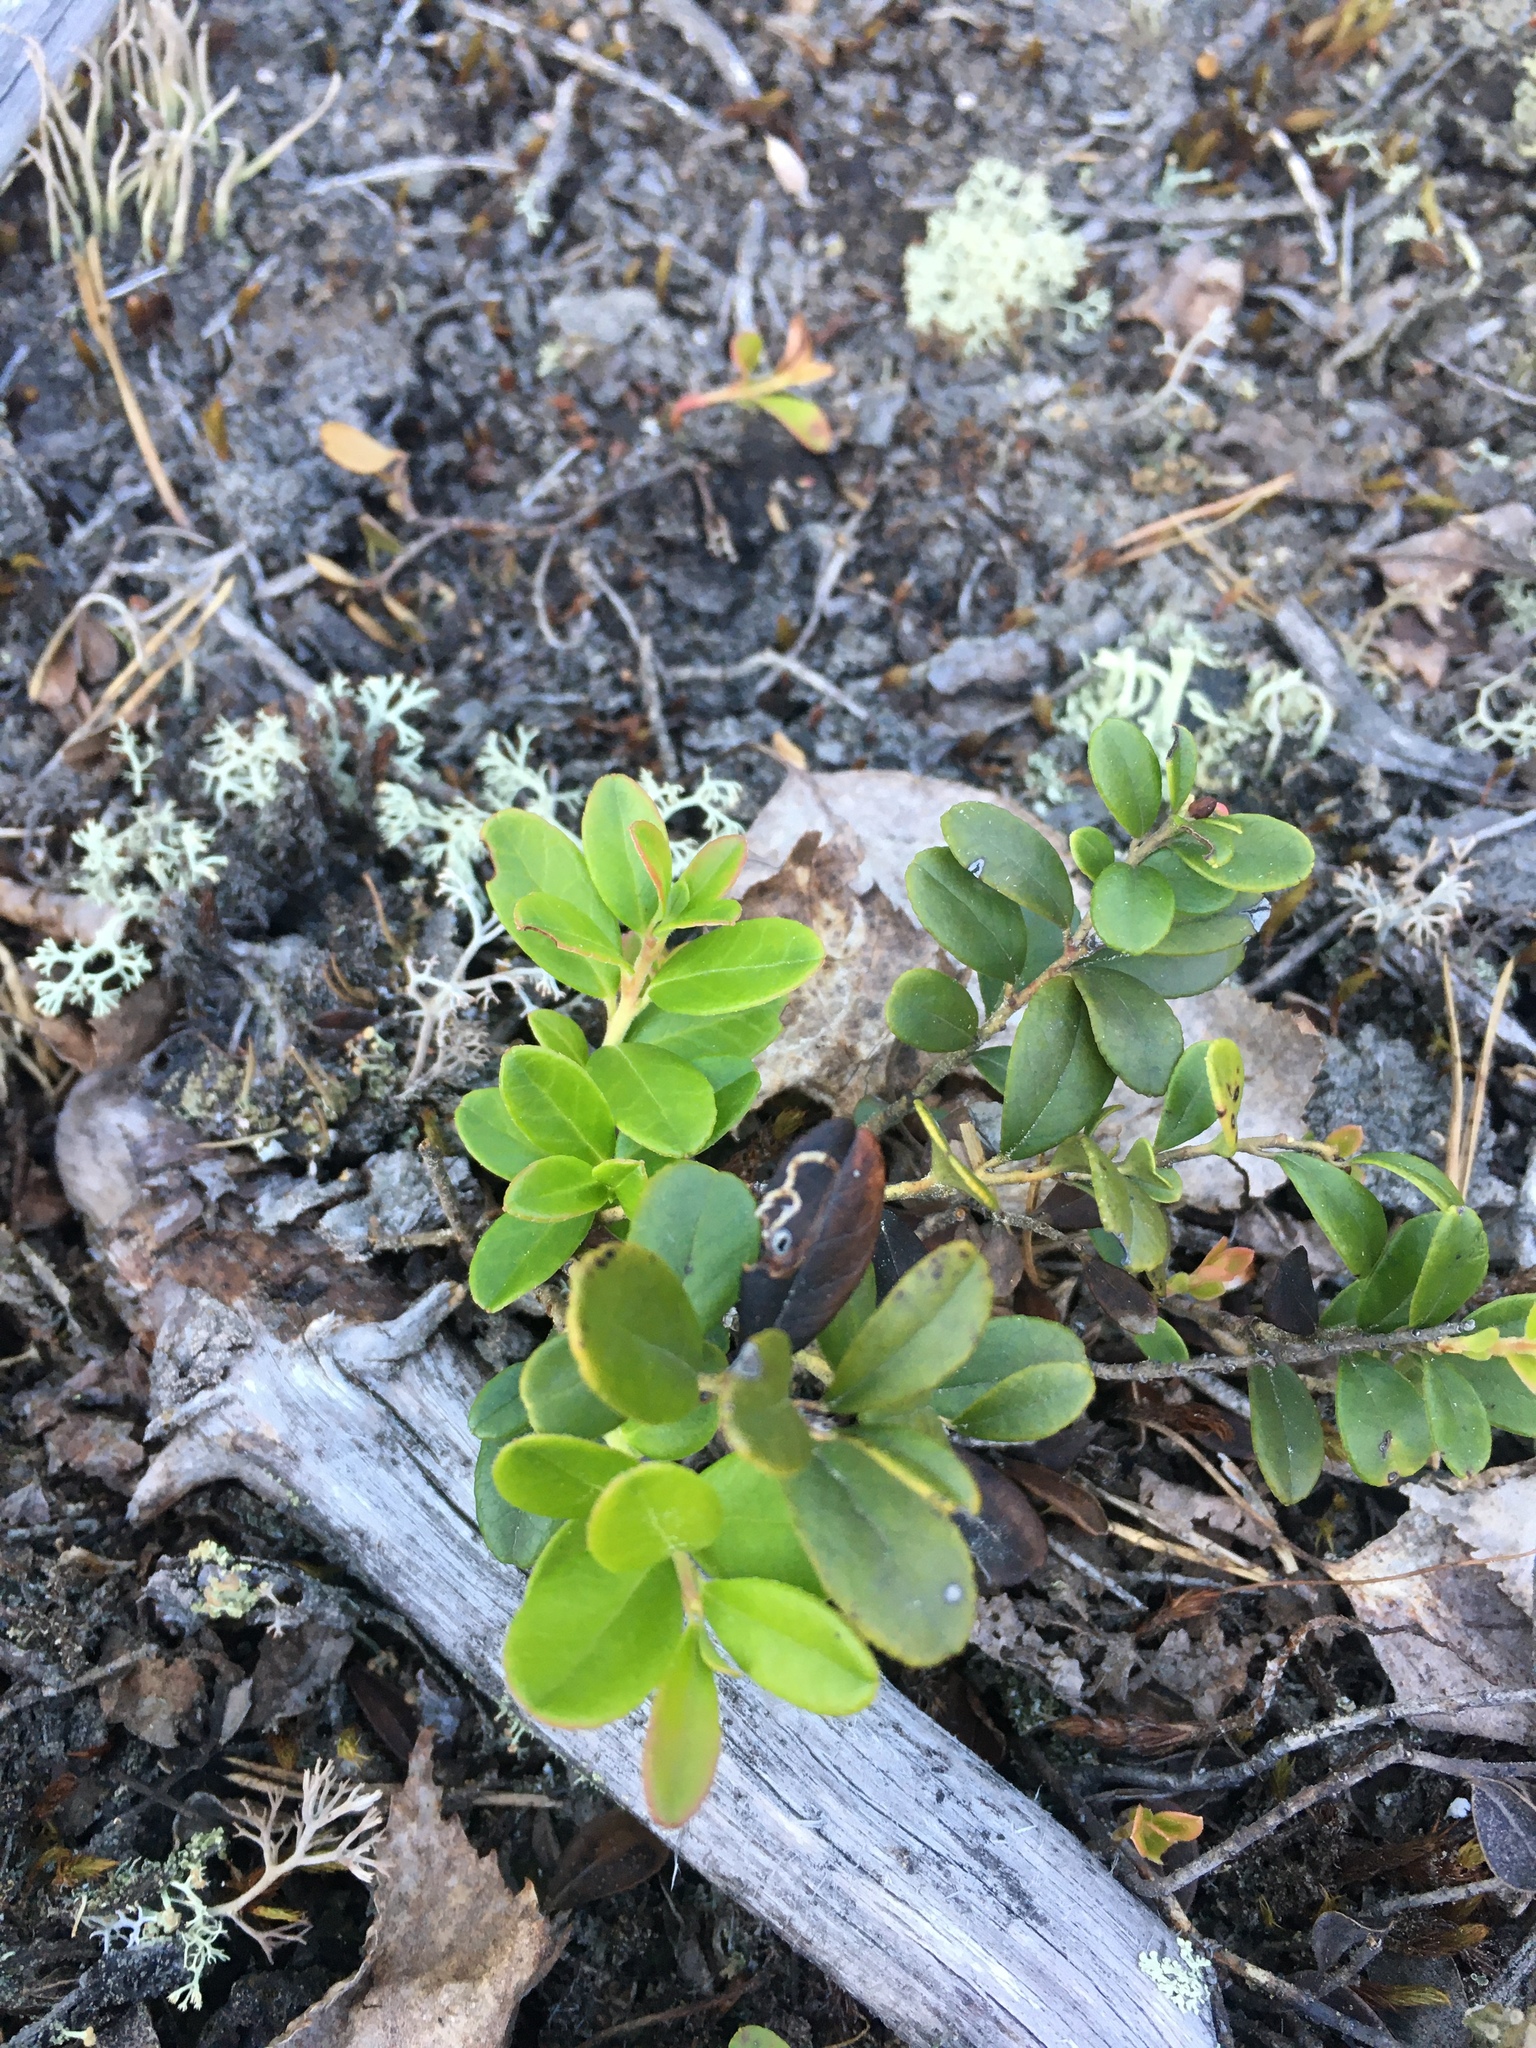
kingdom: Plantae
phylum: Tracheophyta
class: Magnoliopsida
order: Ericales
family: Ericaceae
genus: Vaccinium
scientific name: Vaccinium vitis-idaea
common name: Cowberry
